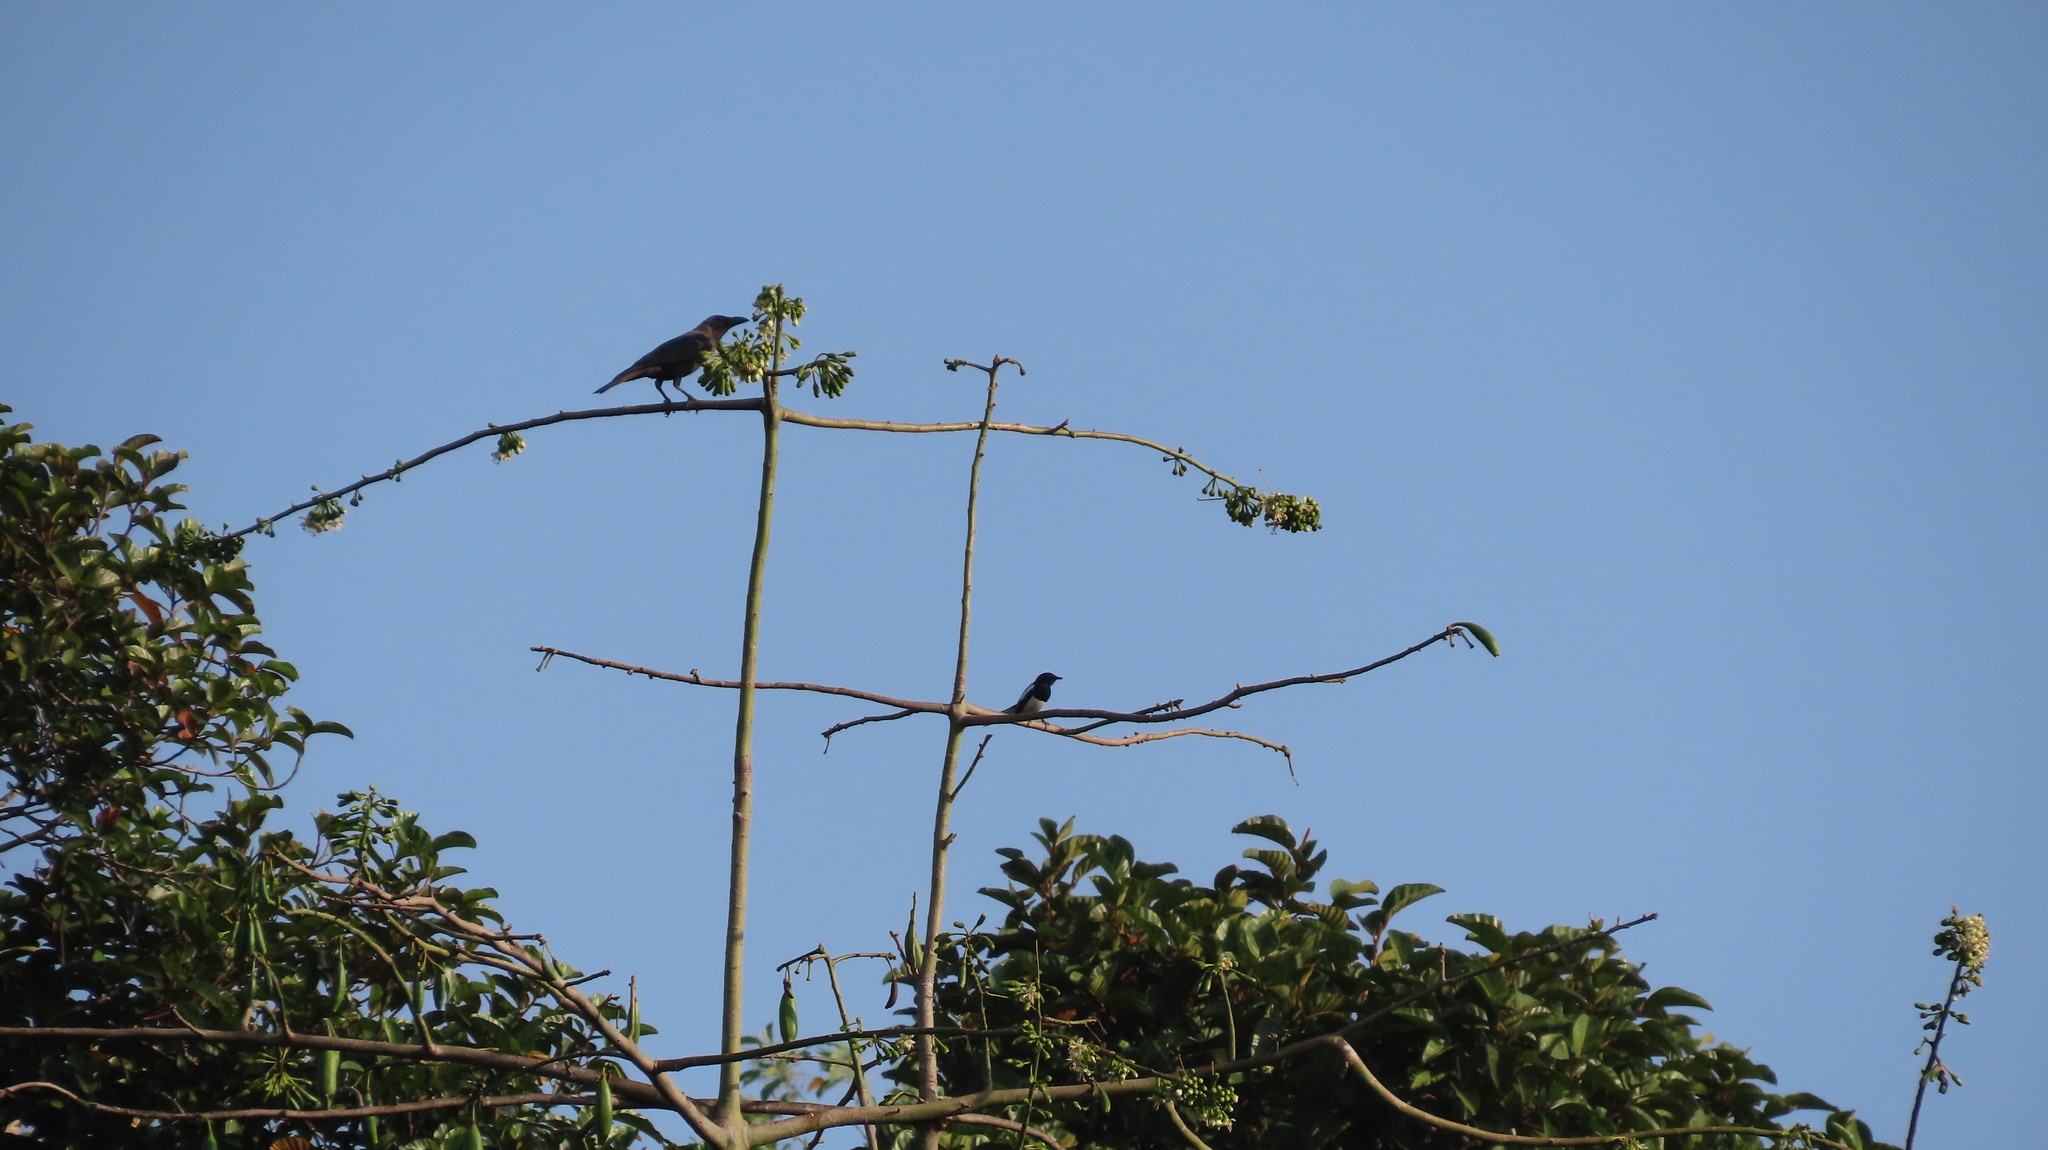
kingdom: Animalia
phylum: Chordata
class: Aves
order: Passeriformes
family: Corvidae
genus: Corvus
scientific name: Corvus splendens
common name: House crow
